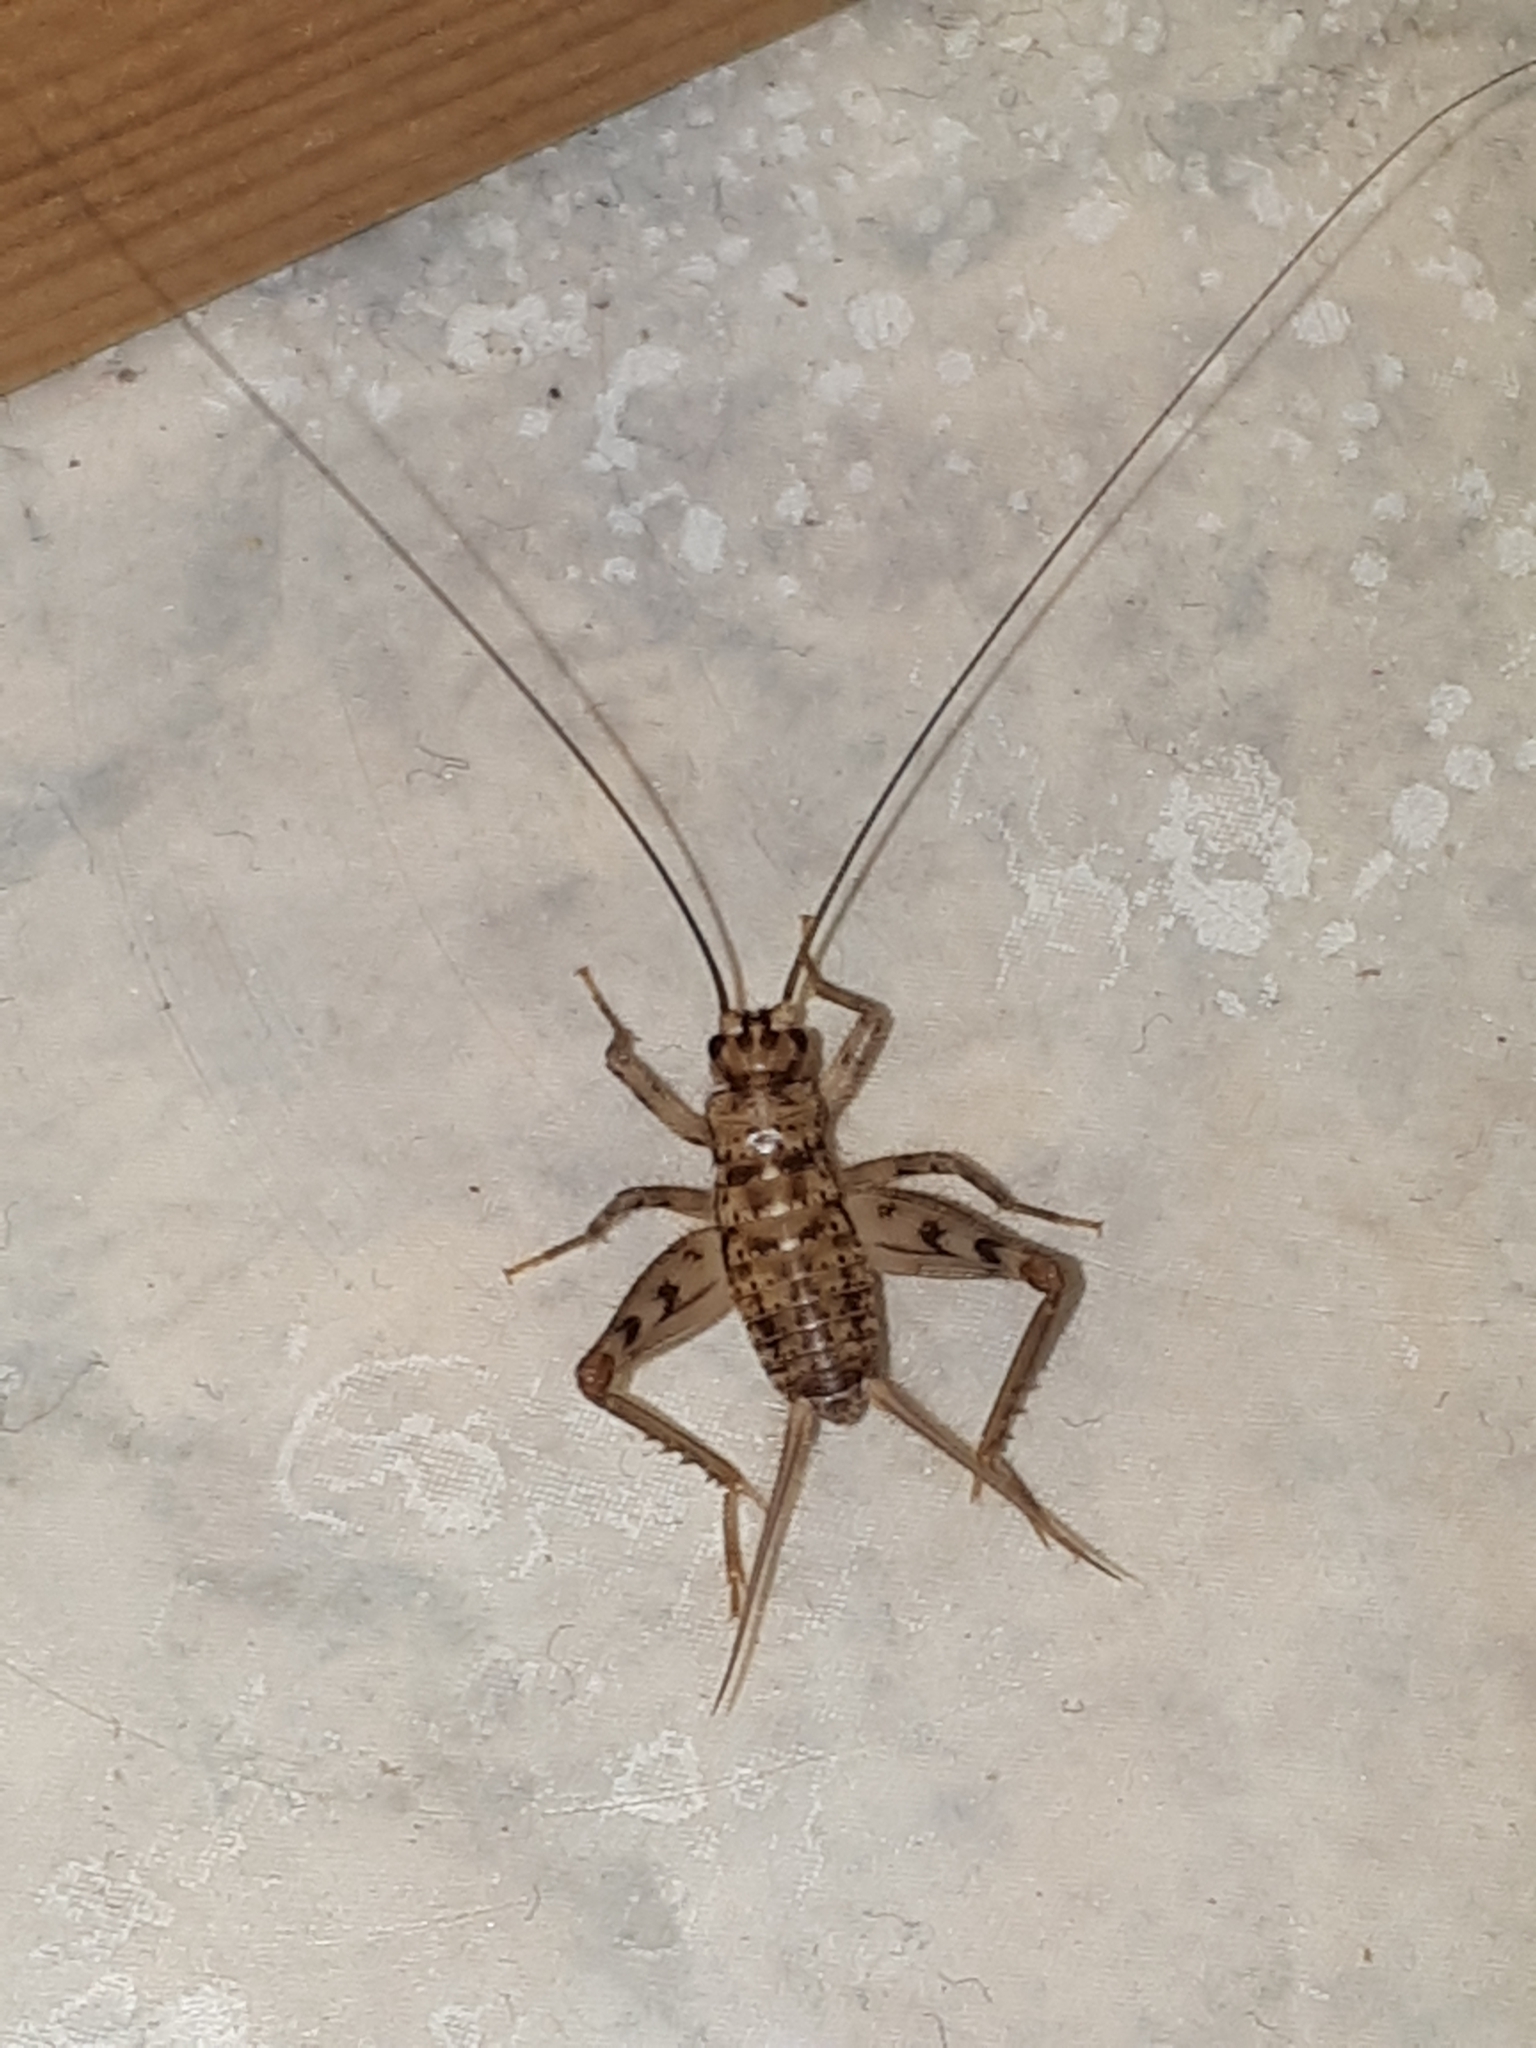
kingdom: Animalia
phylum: Arthropoda
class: Insecta
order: Orthoptera
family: Gryllidae
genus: Gryllomorpha
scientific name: Gryllomorpha dalmatina
